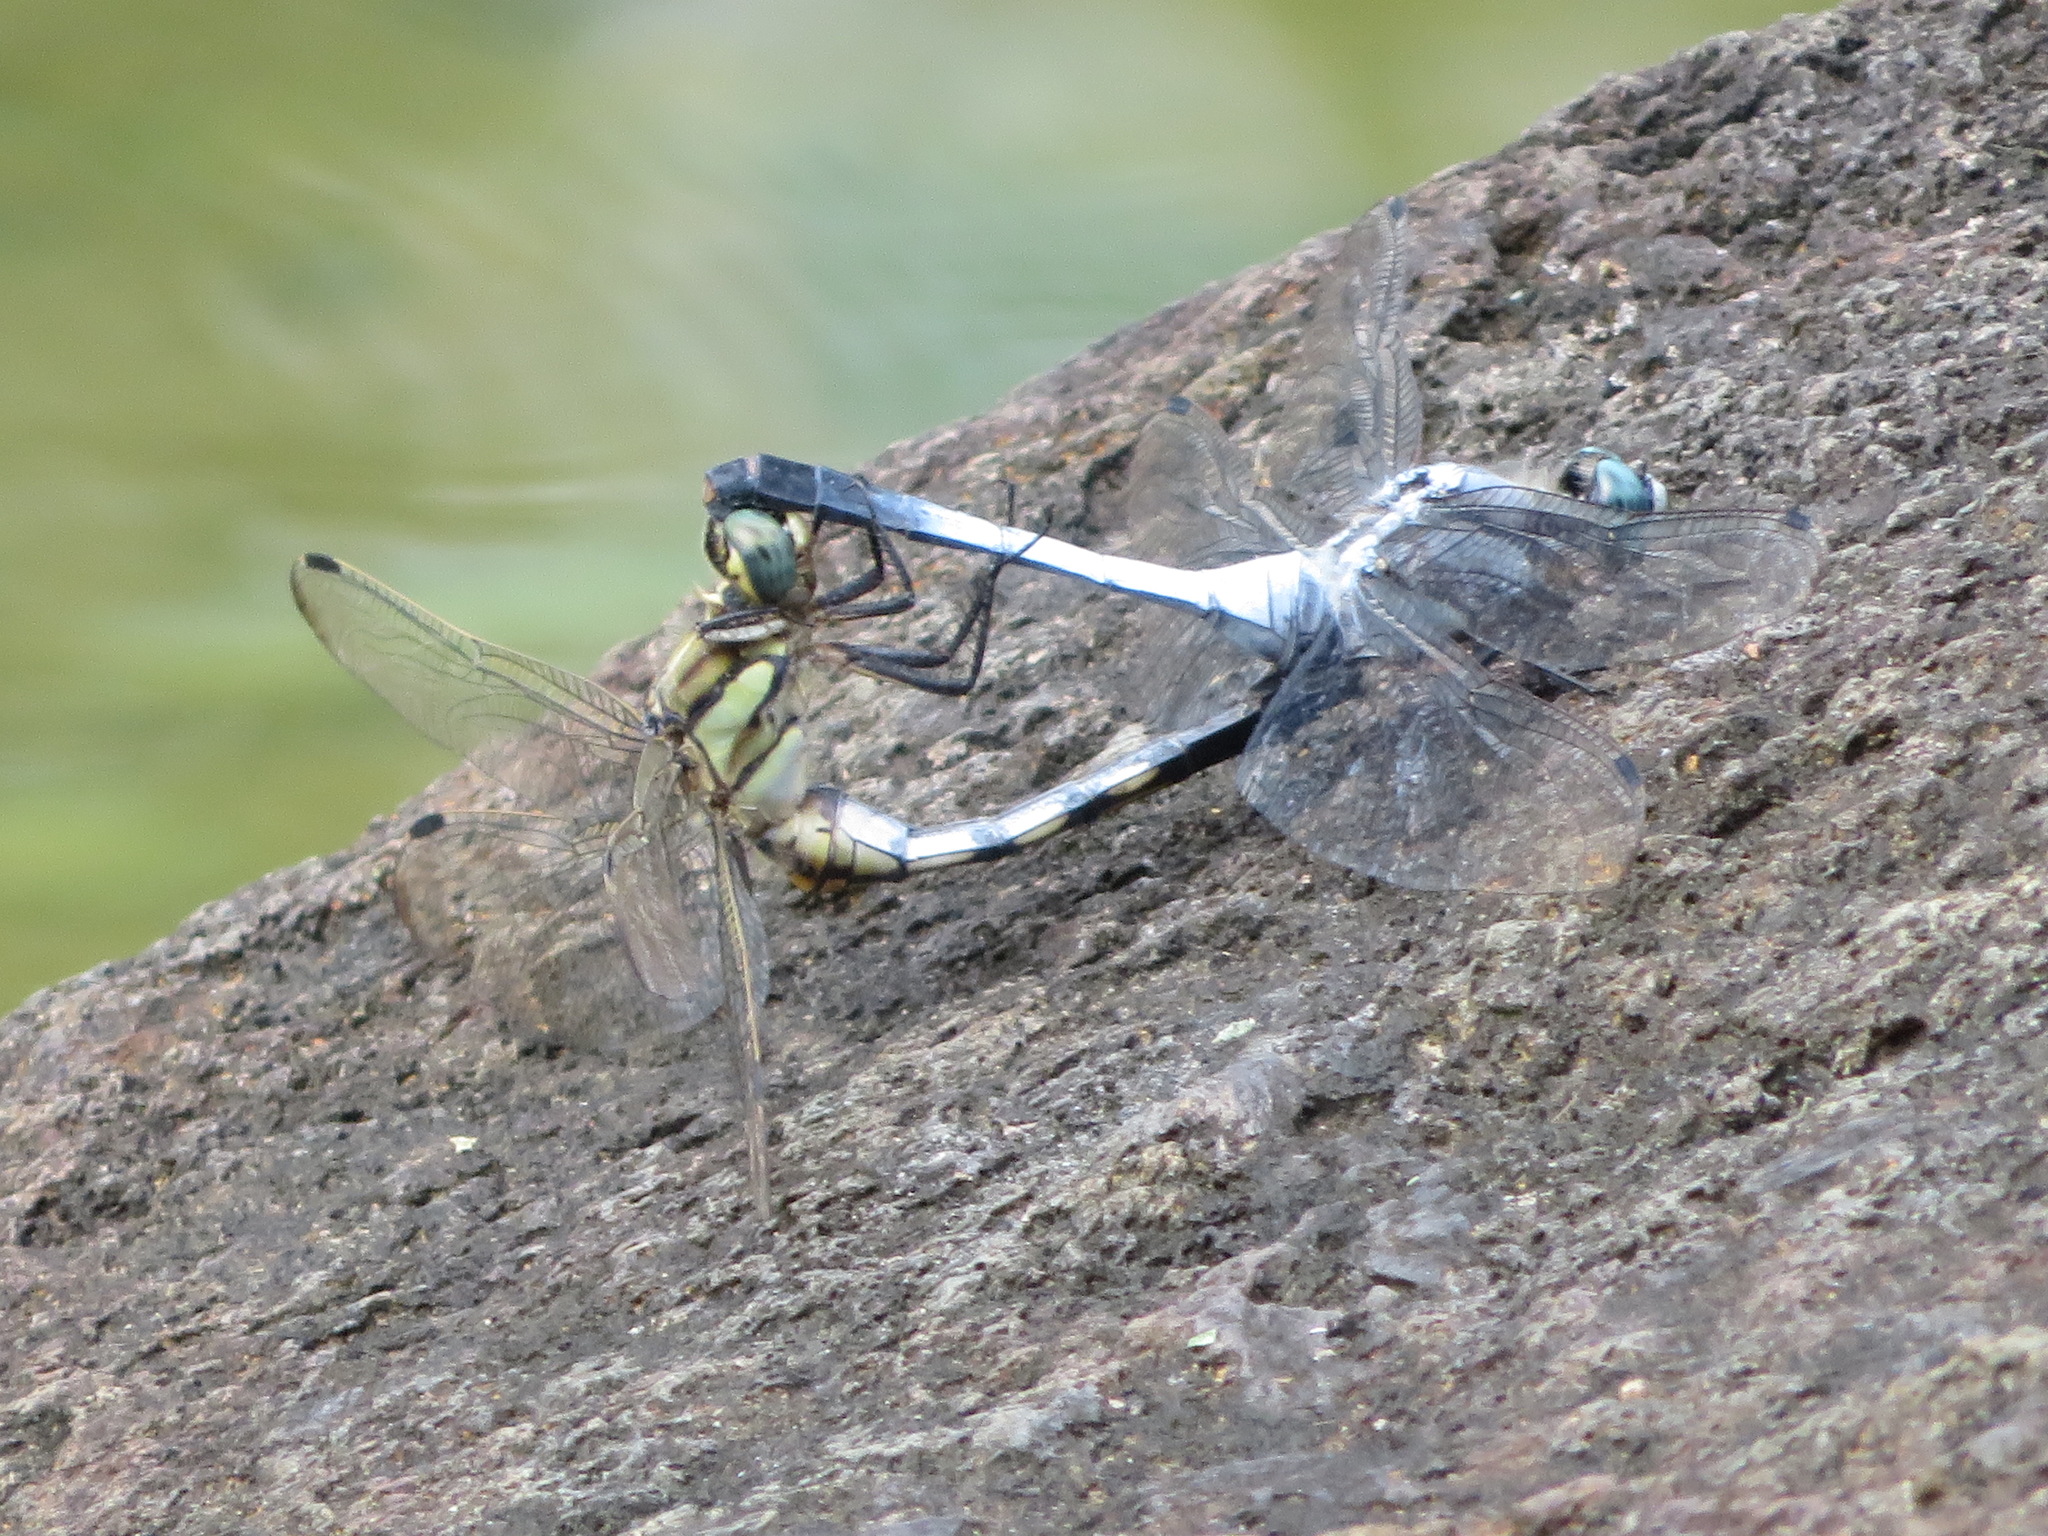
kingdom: Animalia
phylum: Arthropoda
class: Insecta
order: Odonata
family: Libellulidae
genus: Orthetrum
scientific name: Orthetrum albistylum
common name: White-tailed skimmer
